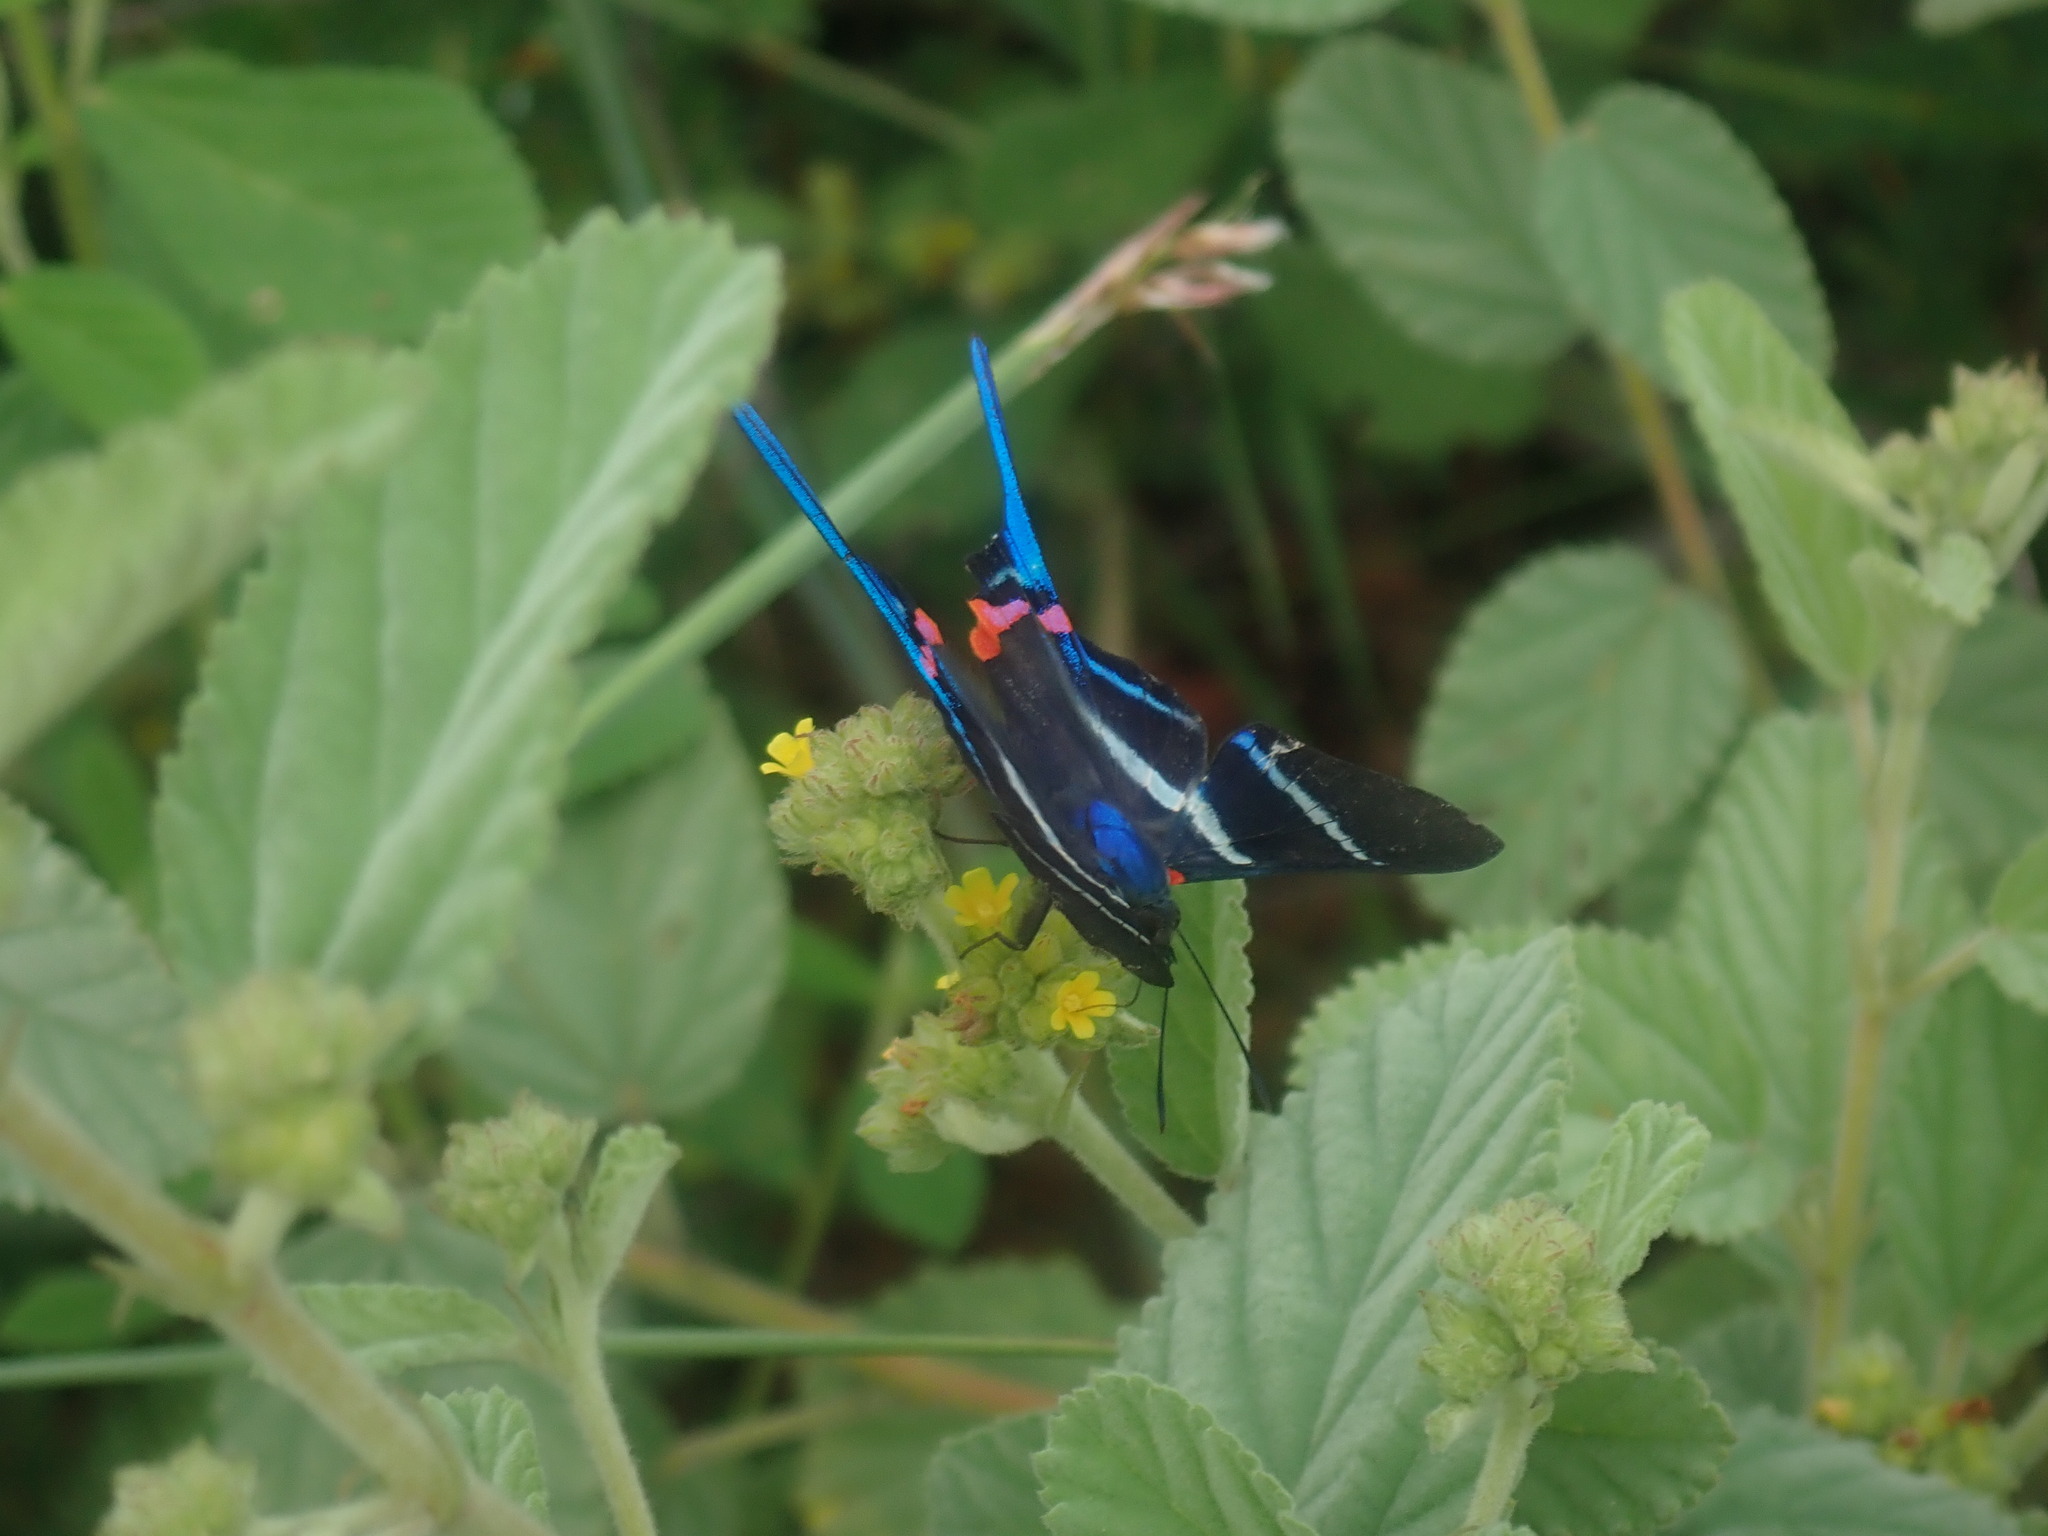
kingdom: Animalia
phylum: Arthropoda
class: Insecta
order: Lepidoptera
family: Riodinidae
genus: Rhetus
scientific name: Rhetus arcius
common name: Long-tailed metalmark
